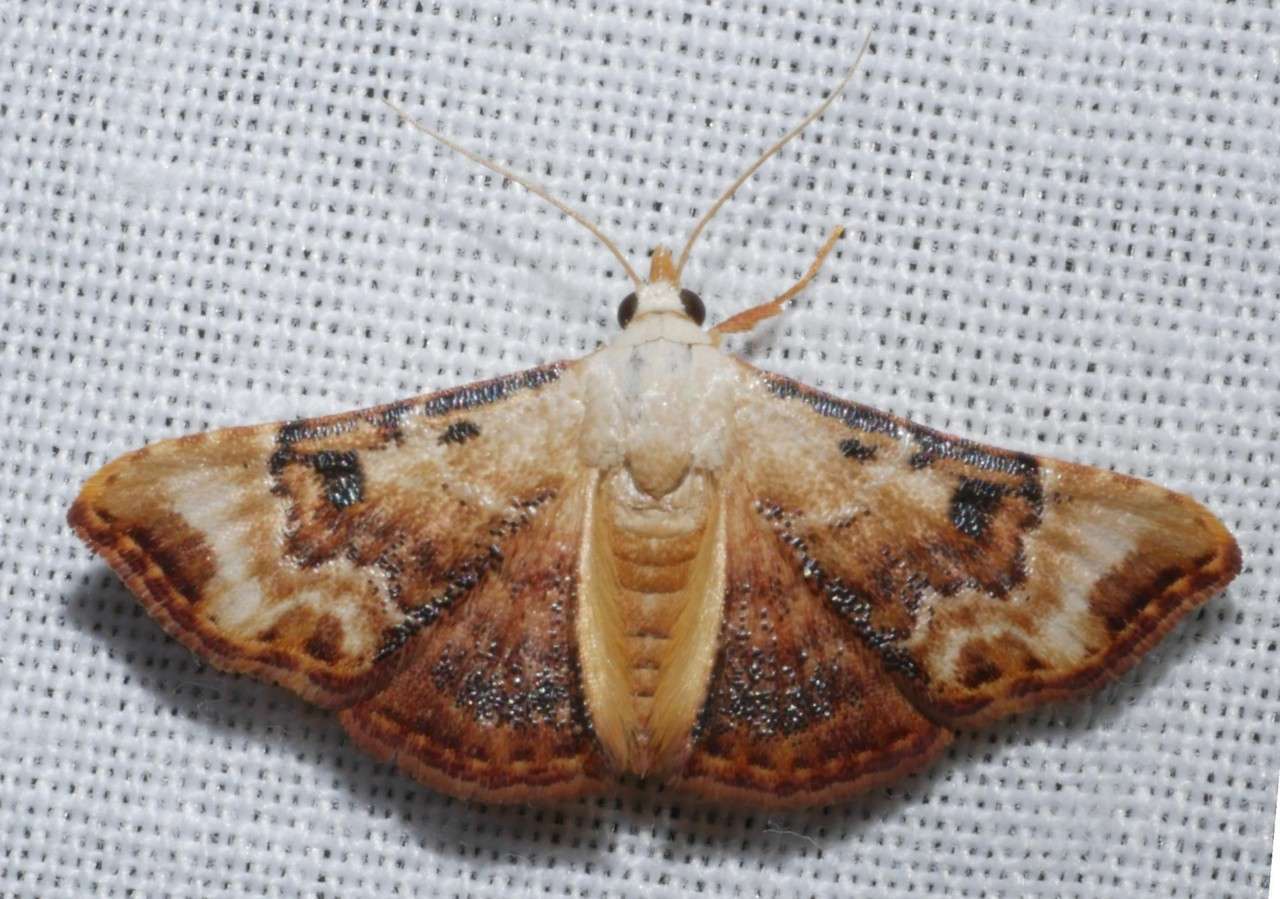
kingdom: Animalia
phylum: Arthropoda
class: Insecta
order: Lepidoptera
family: Erebidae
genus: Corgatha
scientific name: Corgatha molybdophaes
